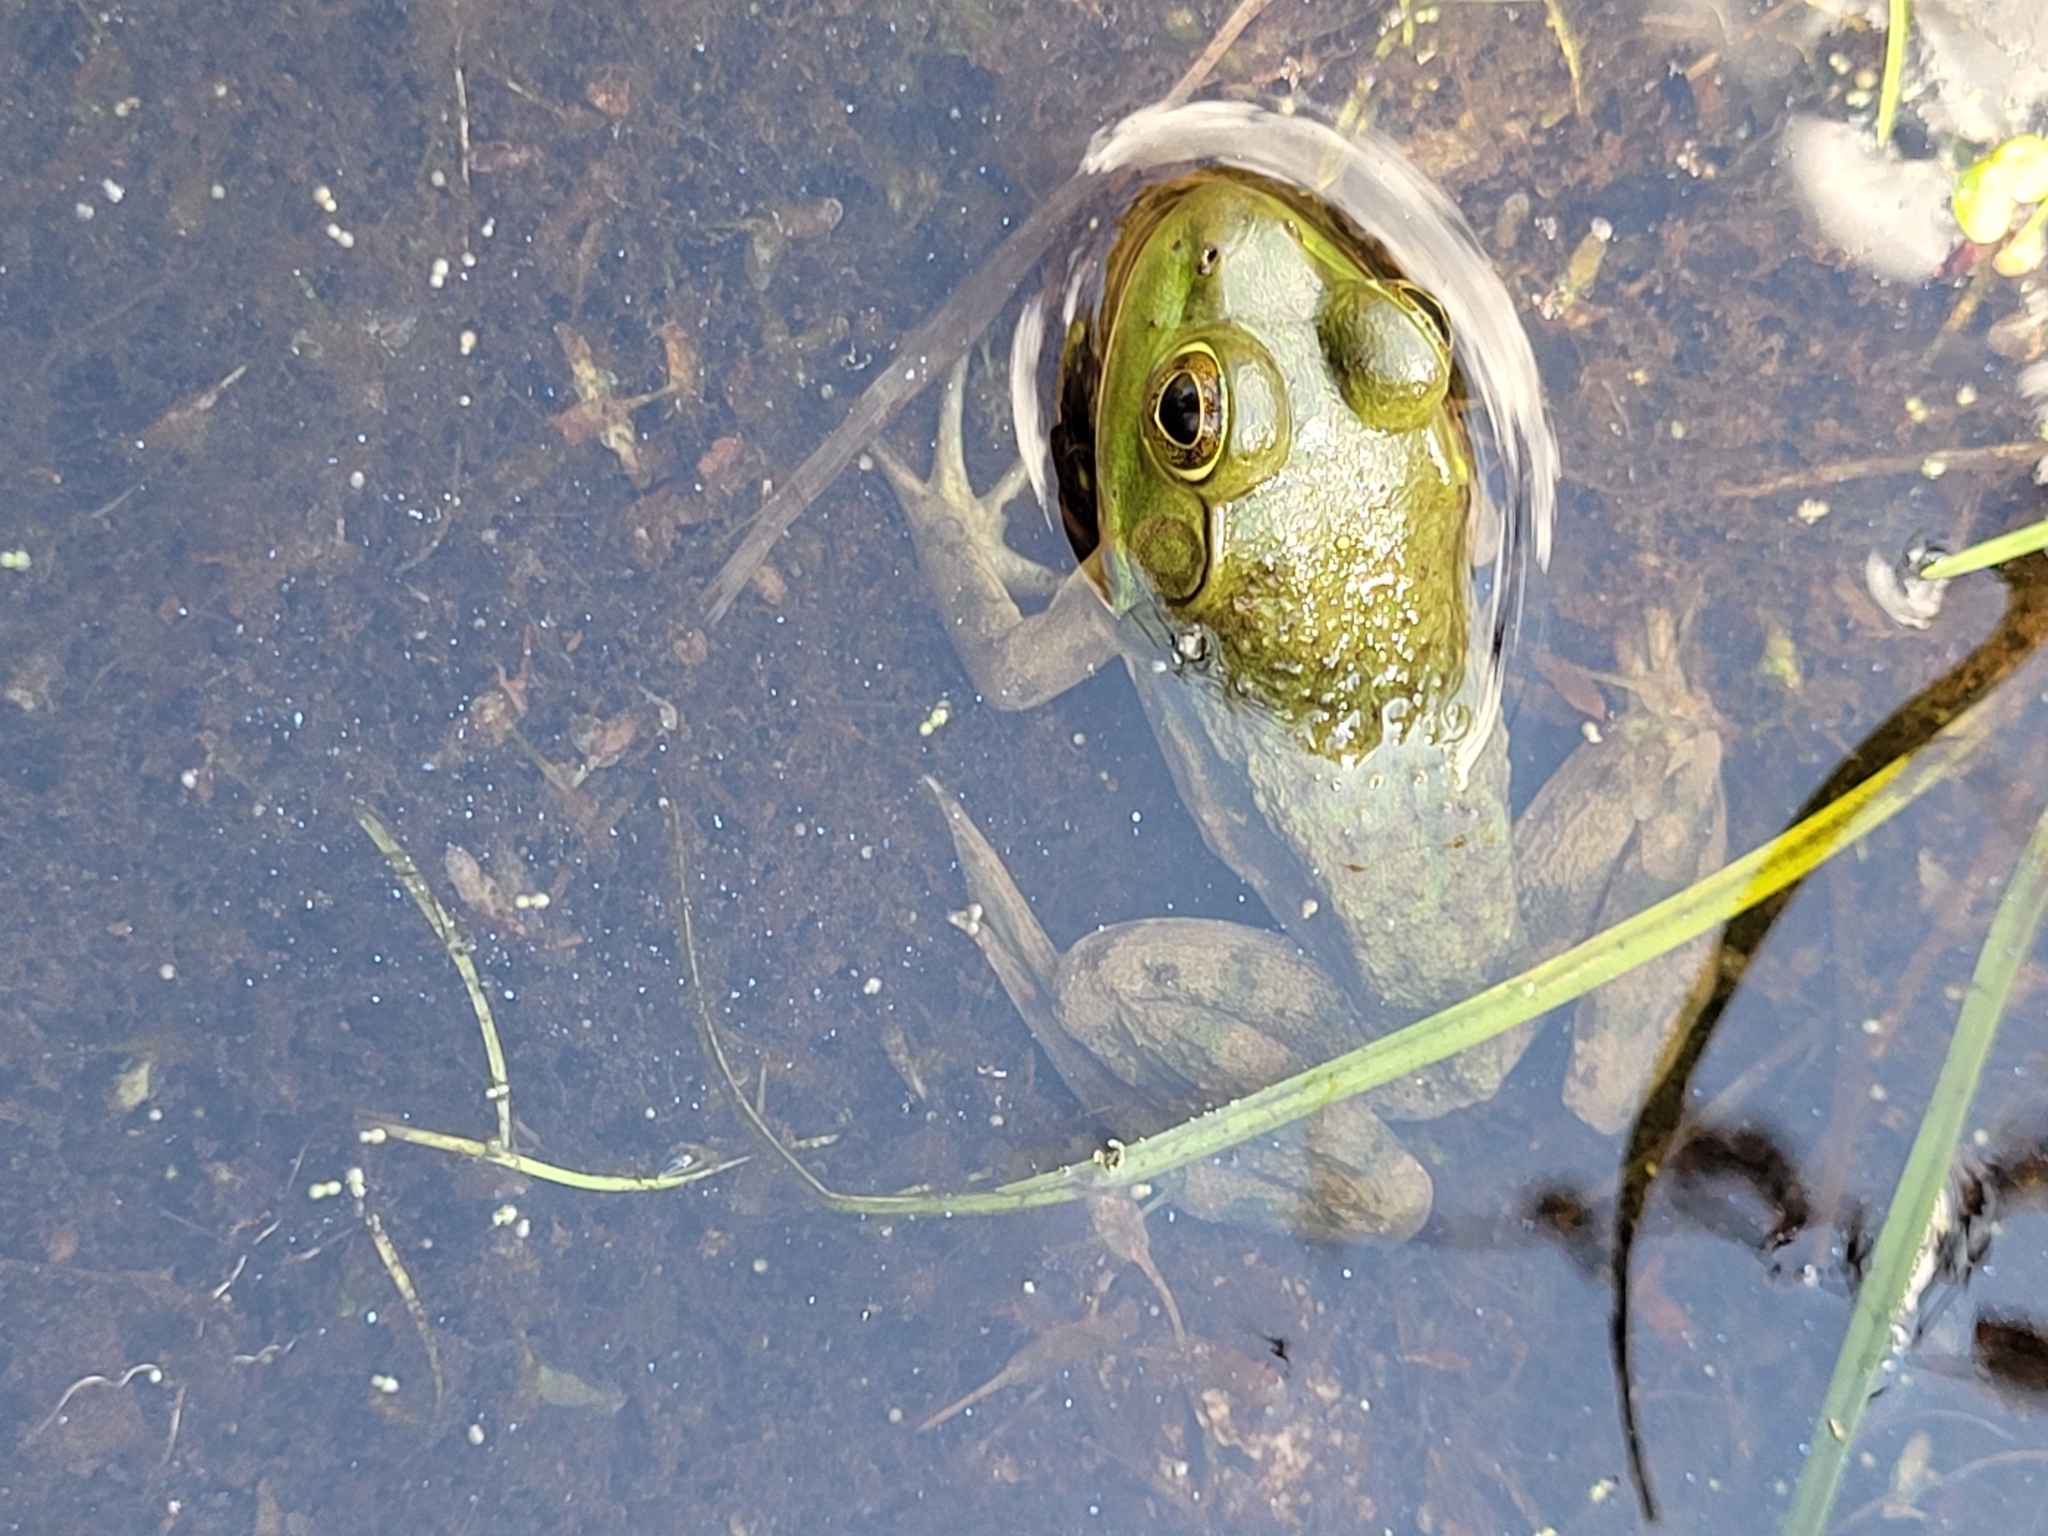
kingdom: Animalia
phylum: Chordata
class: Amphibia
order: Anura
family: Ranidae
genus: Lithobates
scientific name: Lithobates catesbeianus
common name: American bullfrog
